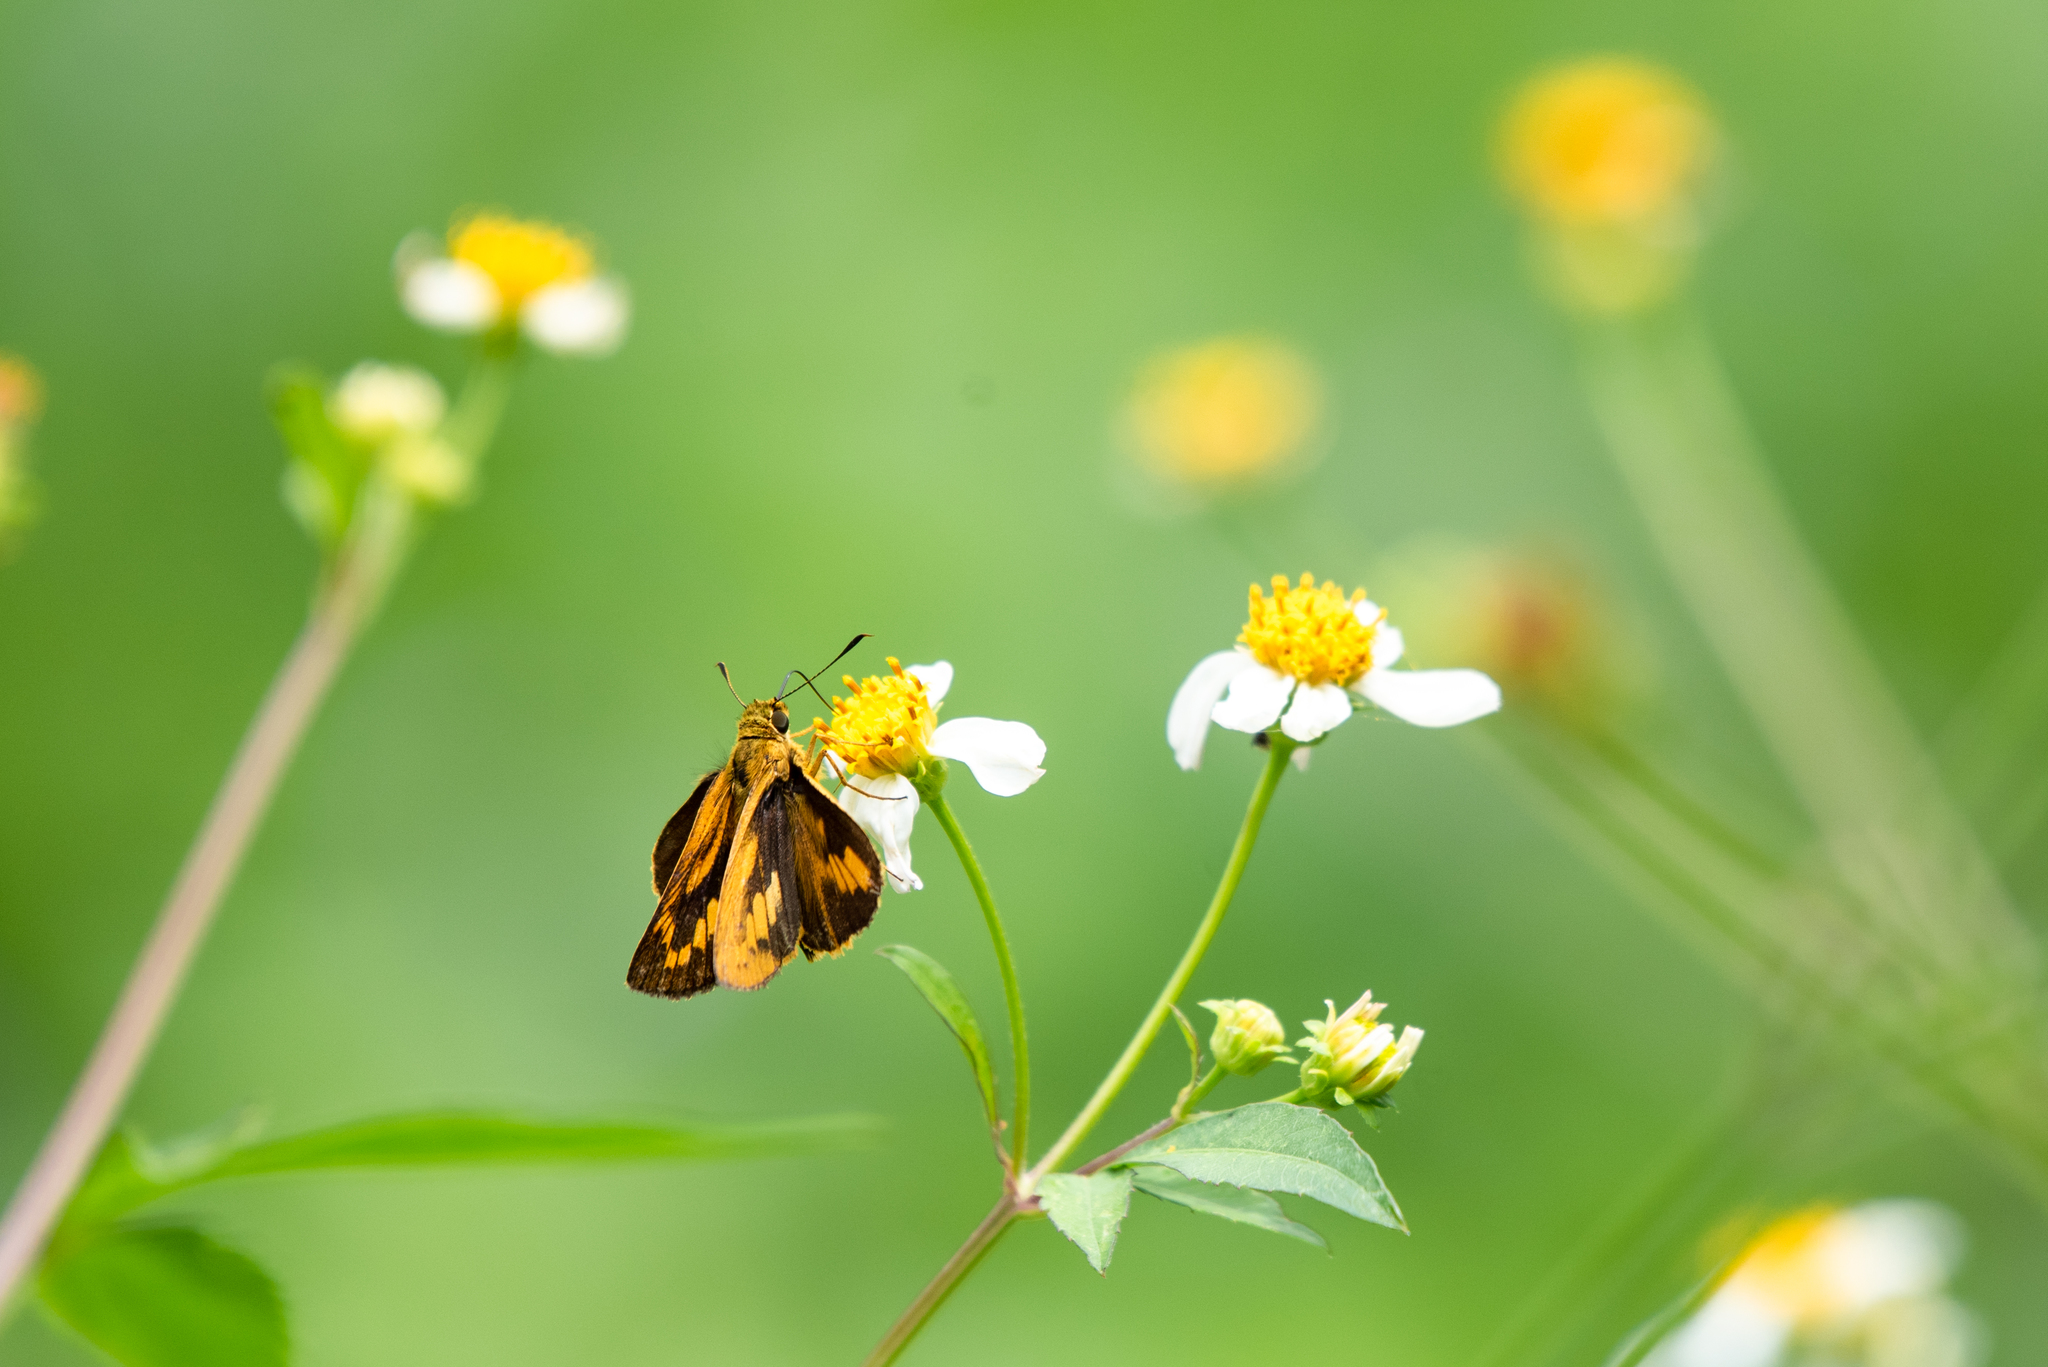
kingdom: Animalia
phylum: Arthropoda
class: Insecta
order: Lepidoptera
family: Hesperiidae
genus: Telicota
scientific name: Telicota bambusae
